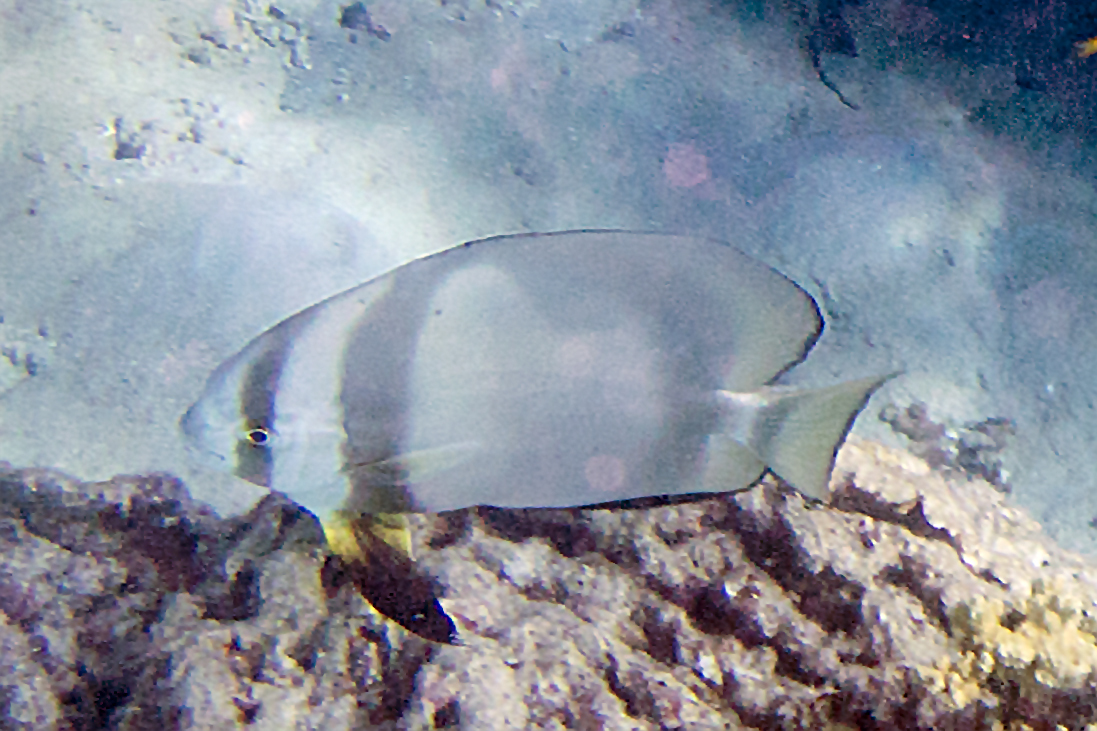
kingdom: Animalia
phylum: Chordata
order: Perciformes
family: Ephippidae
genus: Platax
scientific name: Platax orbicularis
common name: Batfish
